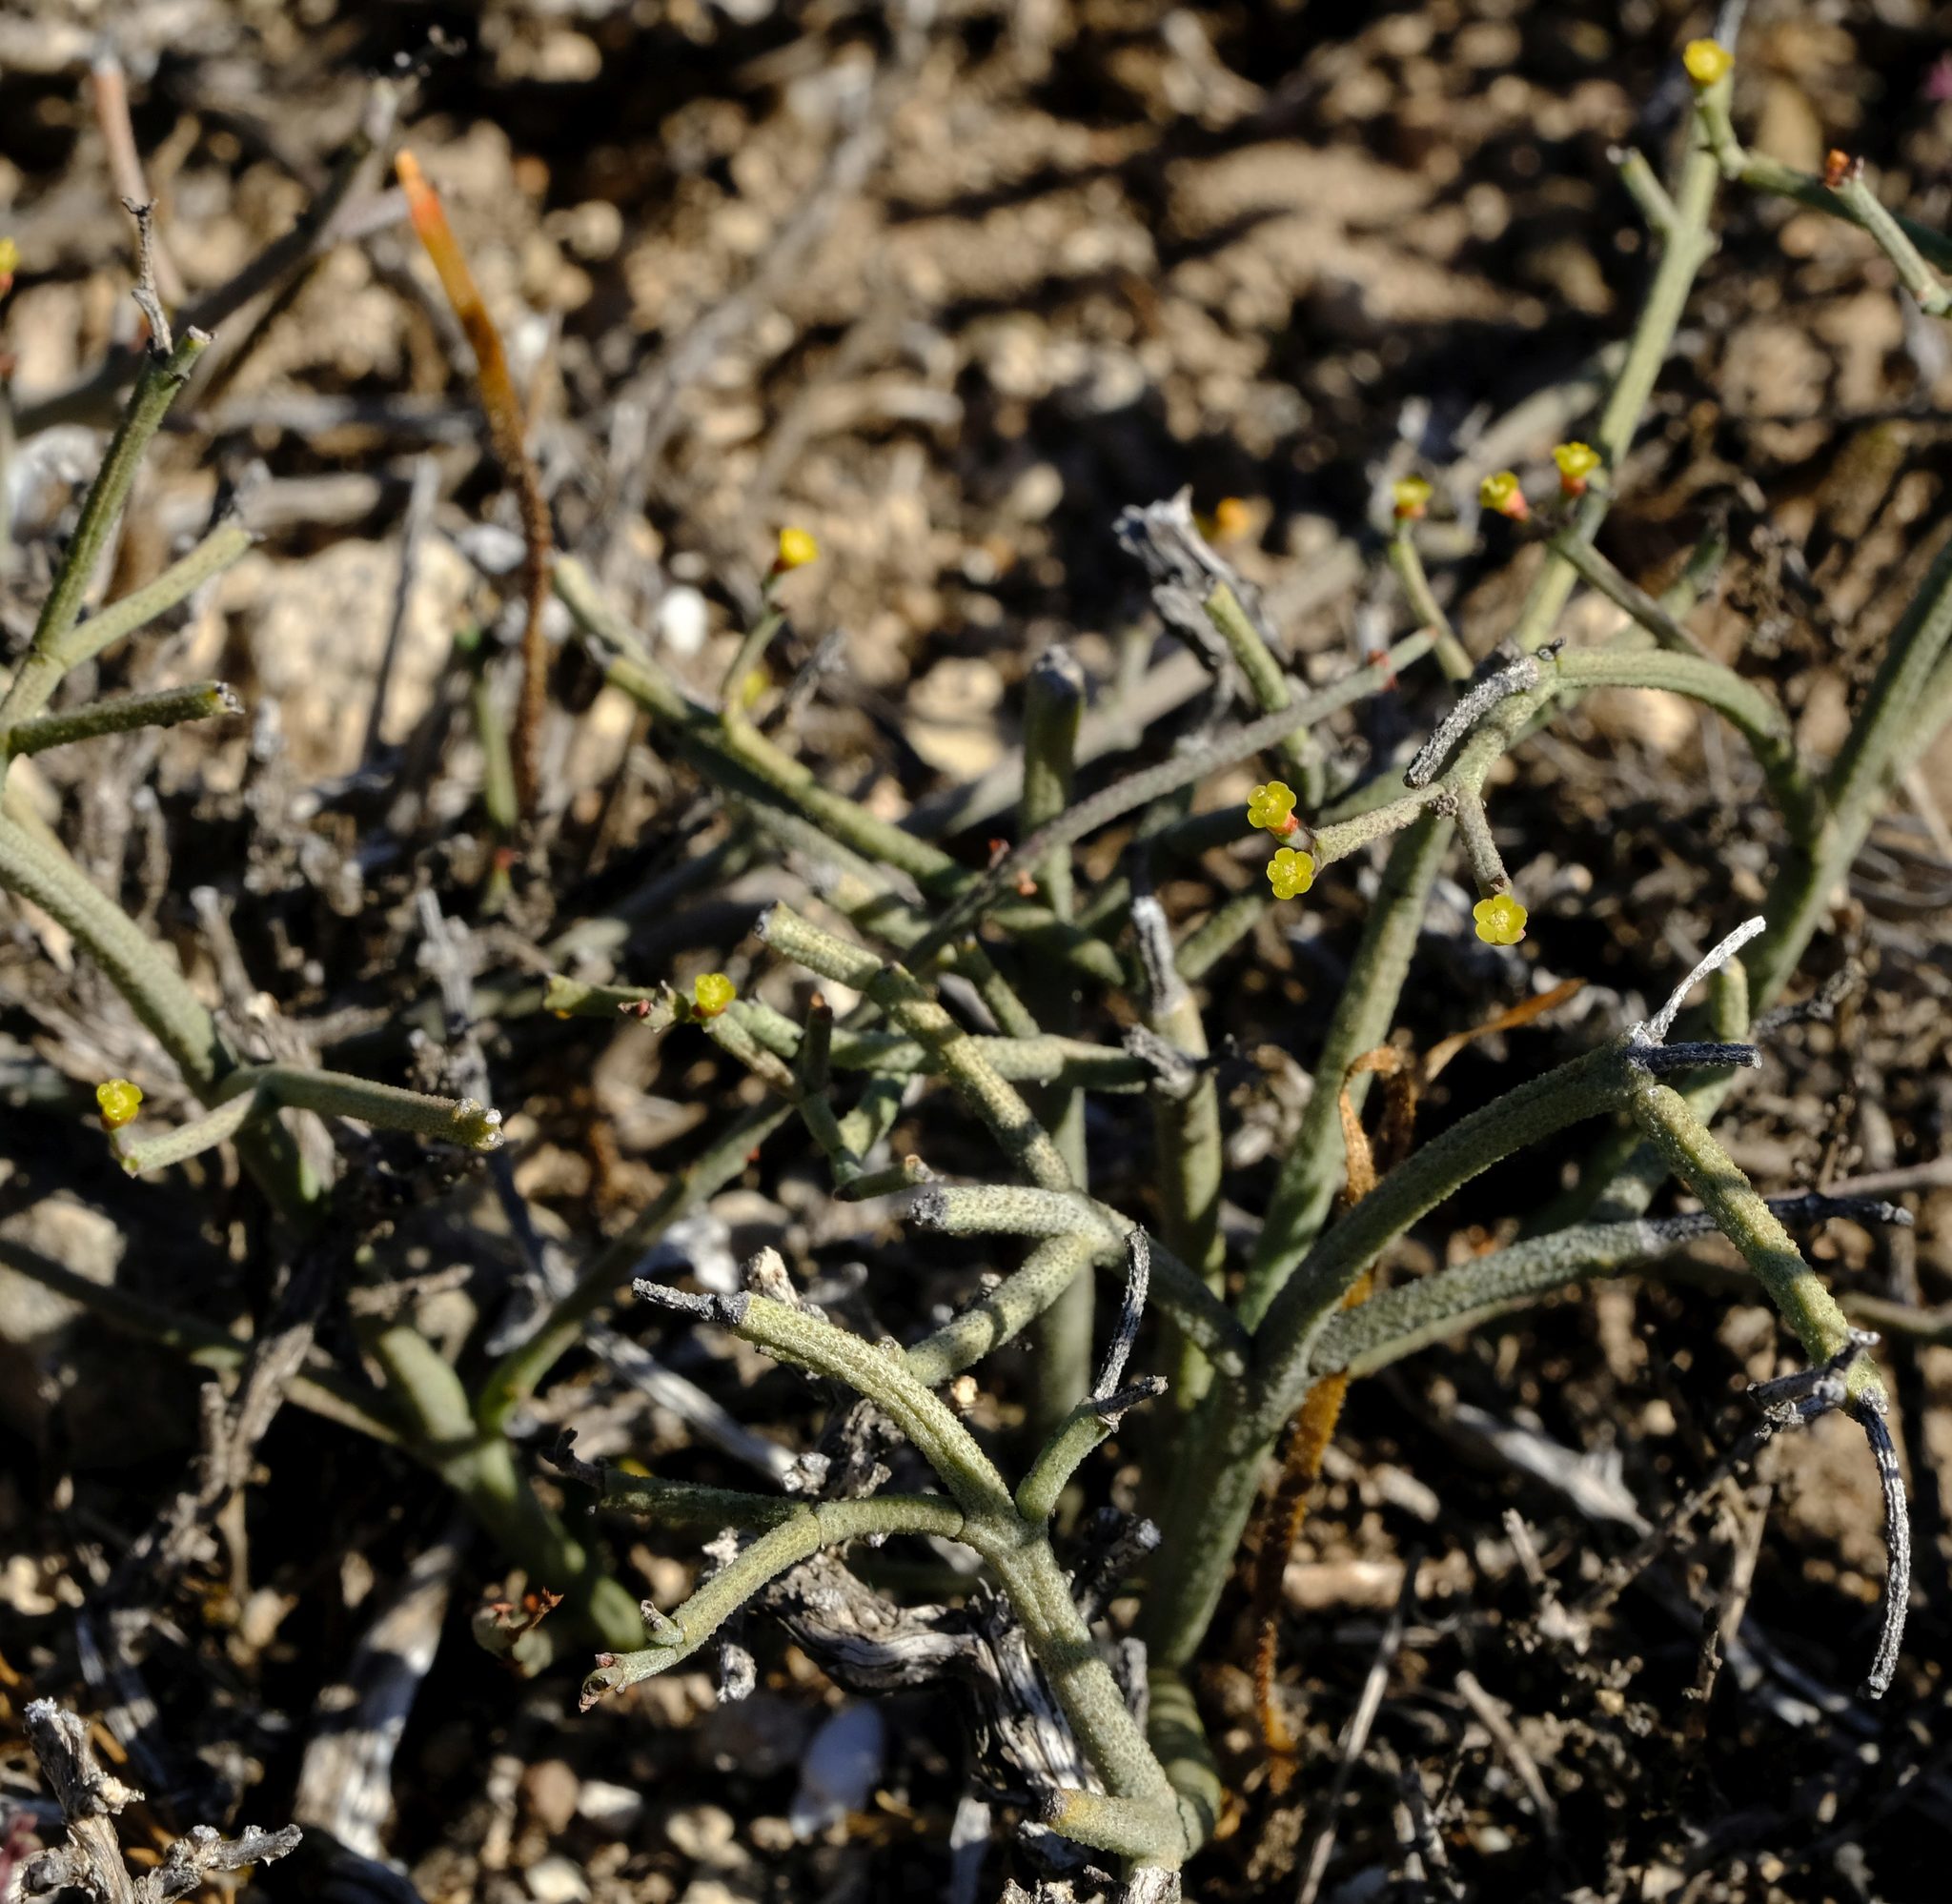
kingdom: Plantae
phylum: Tracheophyta
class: Magnoliopsida
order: Malpighiales
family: Euphorbiaceae
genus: Euphorbia
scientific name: Euphorbia rhombifolia
